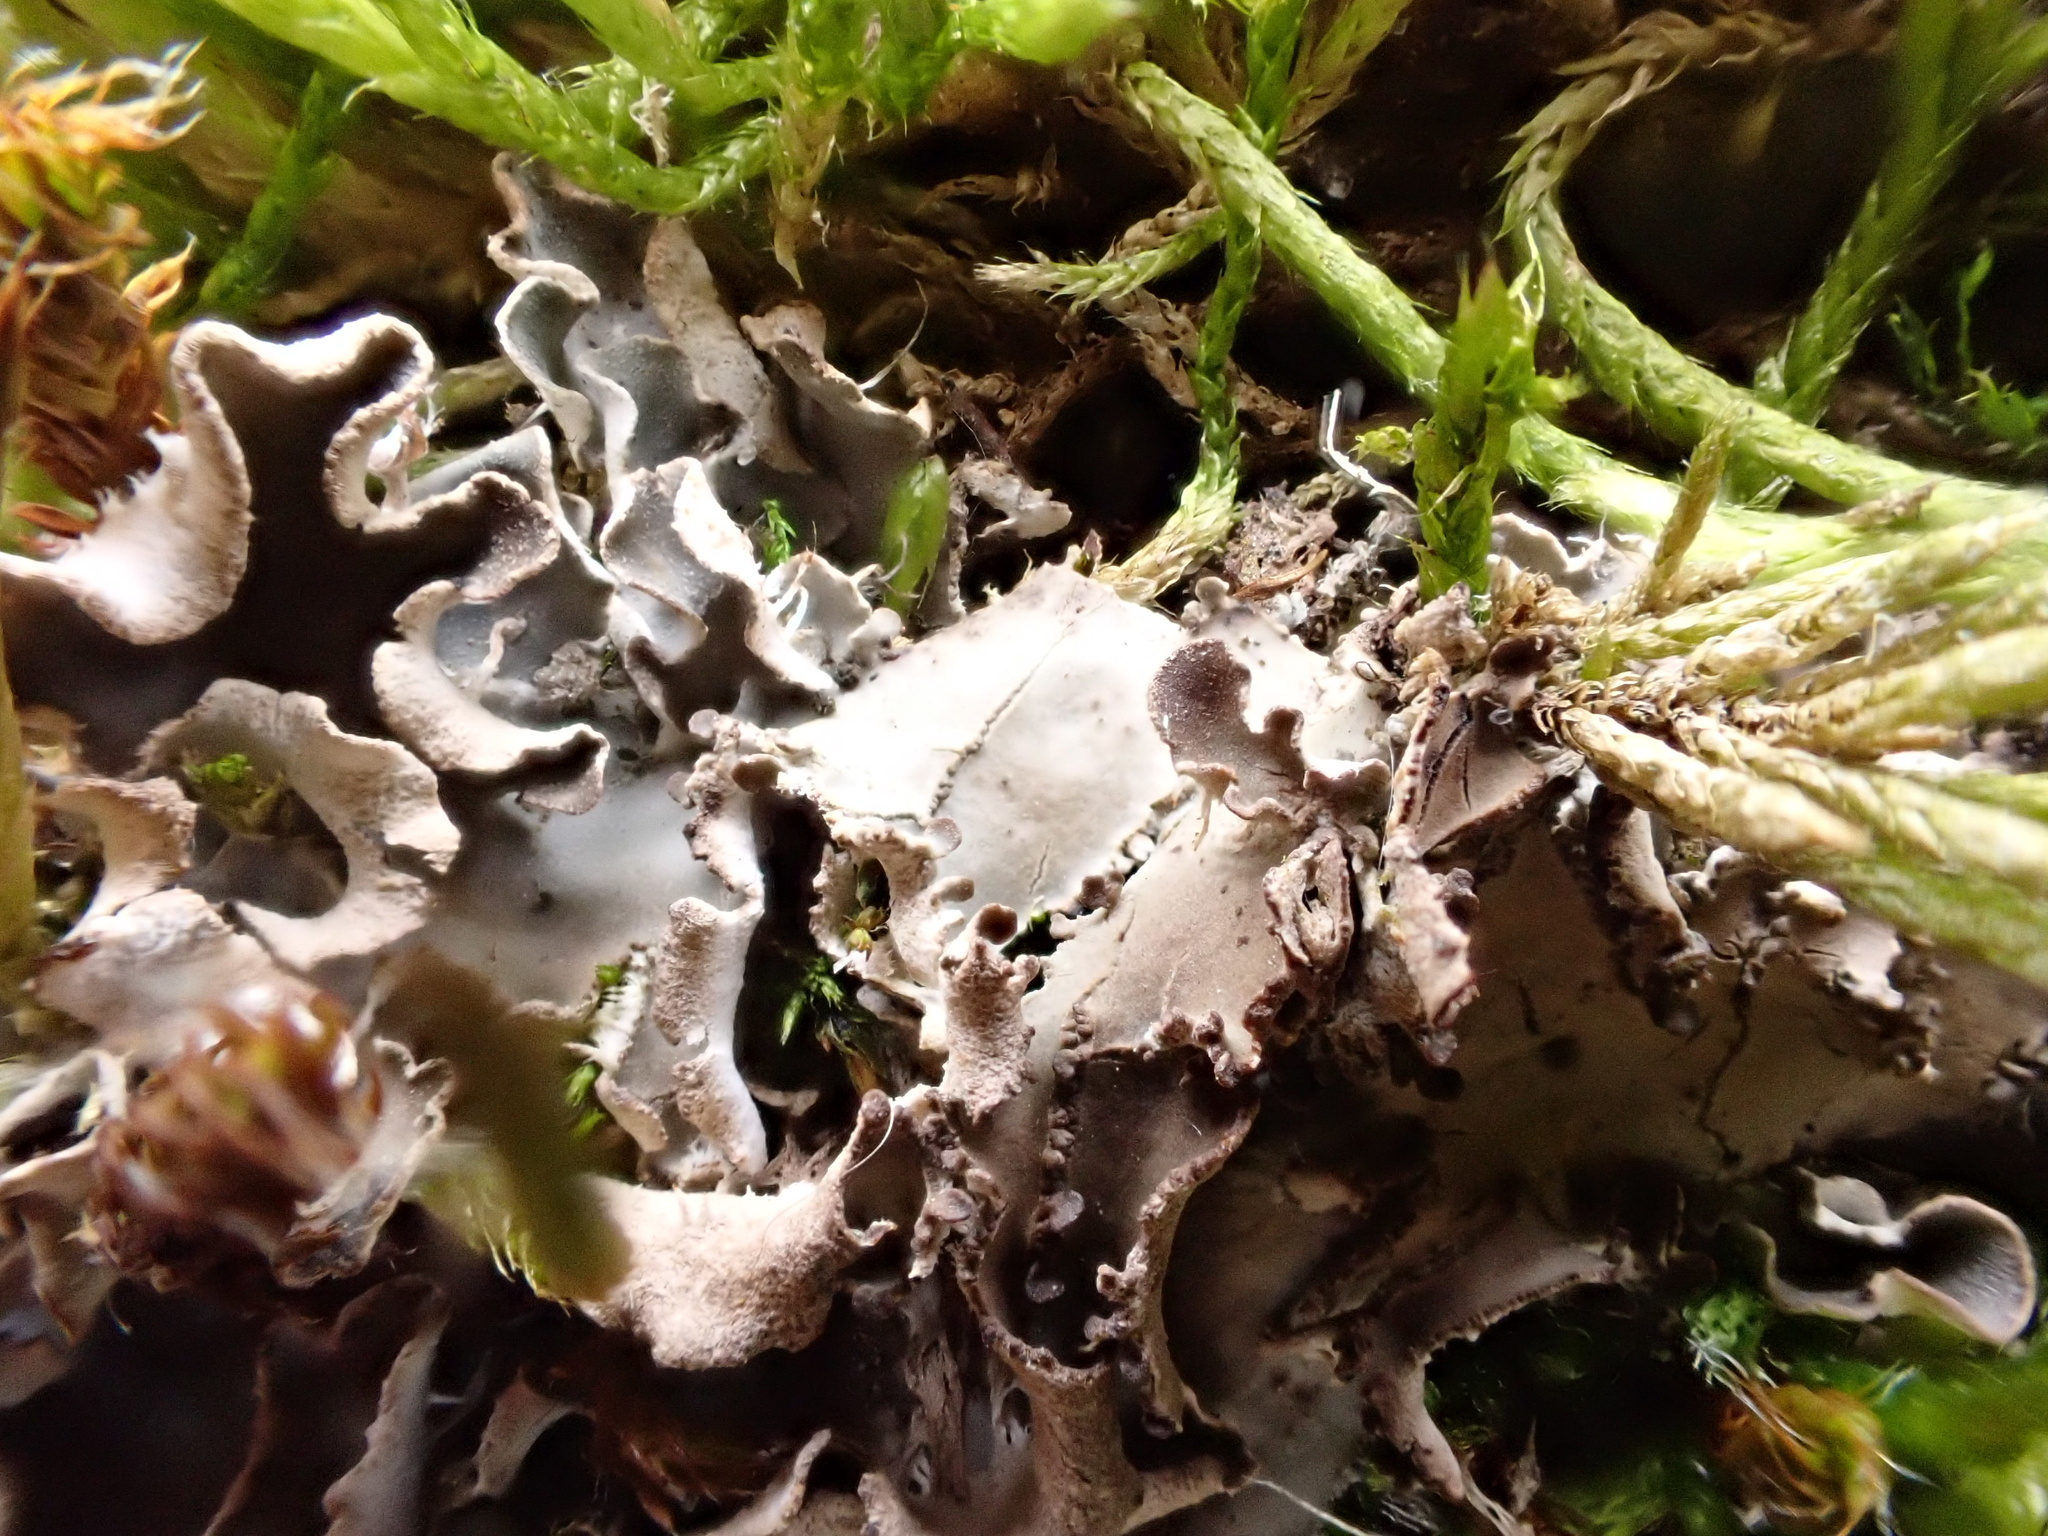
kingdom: Fungi
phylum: Ascomycota
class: Lecanoromycetes
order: Peltigerales
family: Peltigeraceae
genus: Peltigera
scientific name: Peltigera rufescens
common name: Field dog lichen
